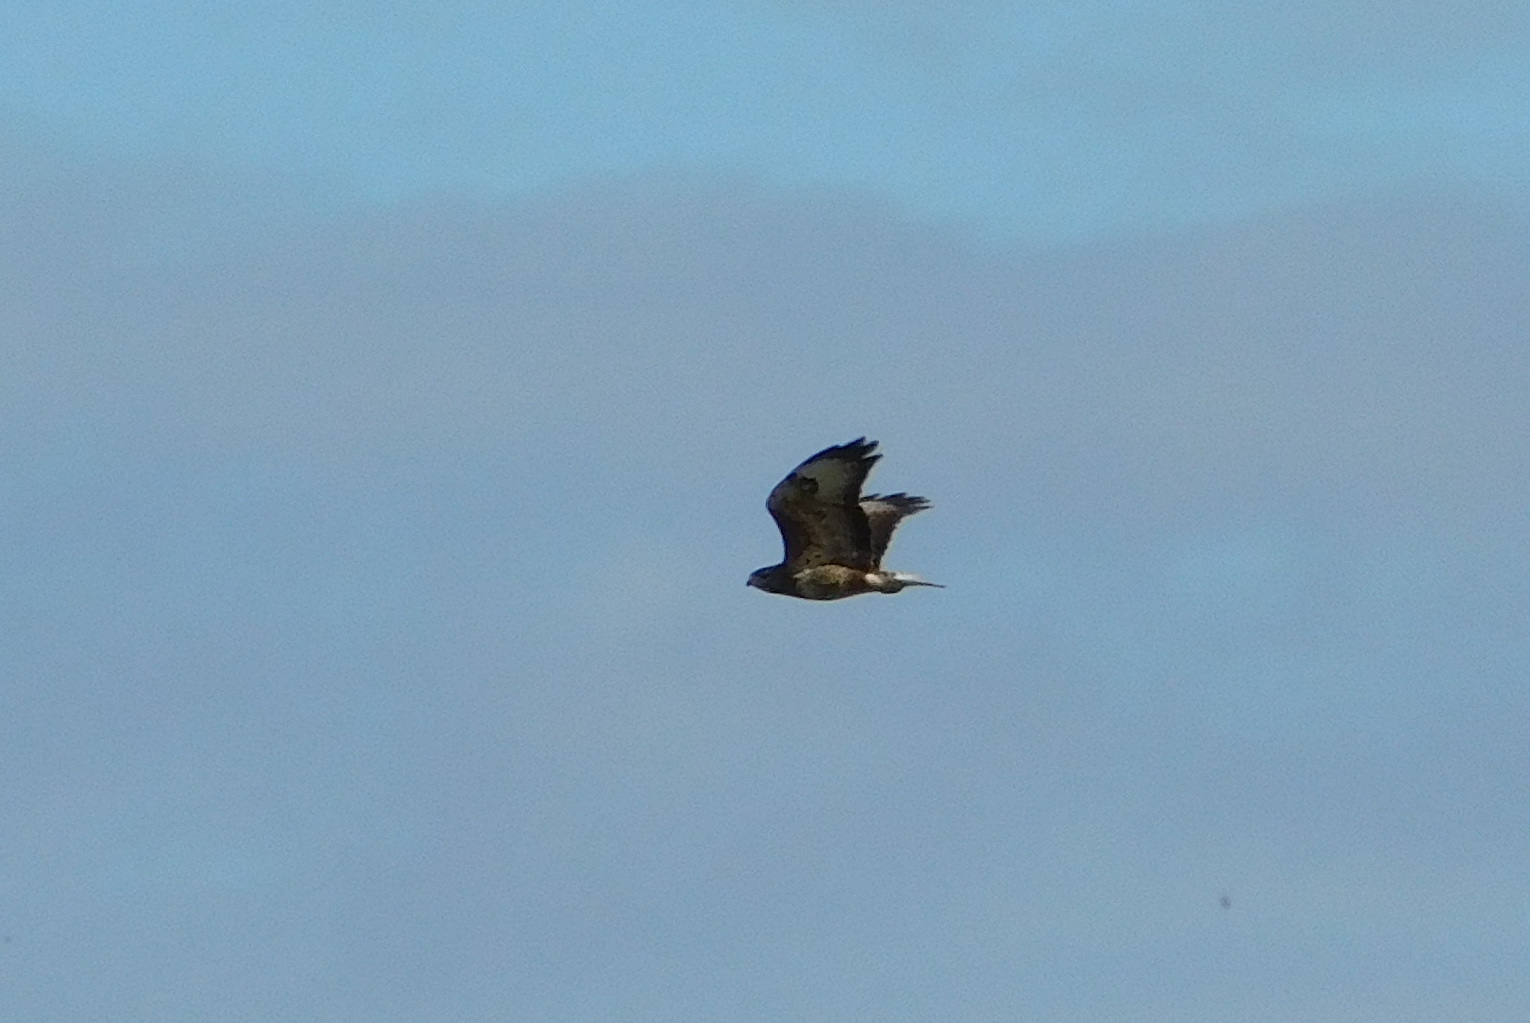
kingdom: Animalia
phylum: Chordata
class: Aves
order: Accipitriformes
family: Accipitridae
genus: Buteo
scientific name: Buteo buteo
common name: Common buzzard
